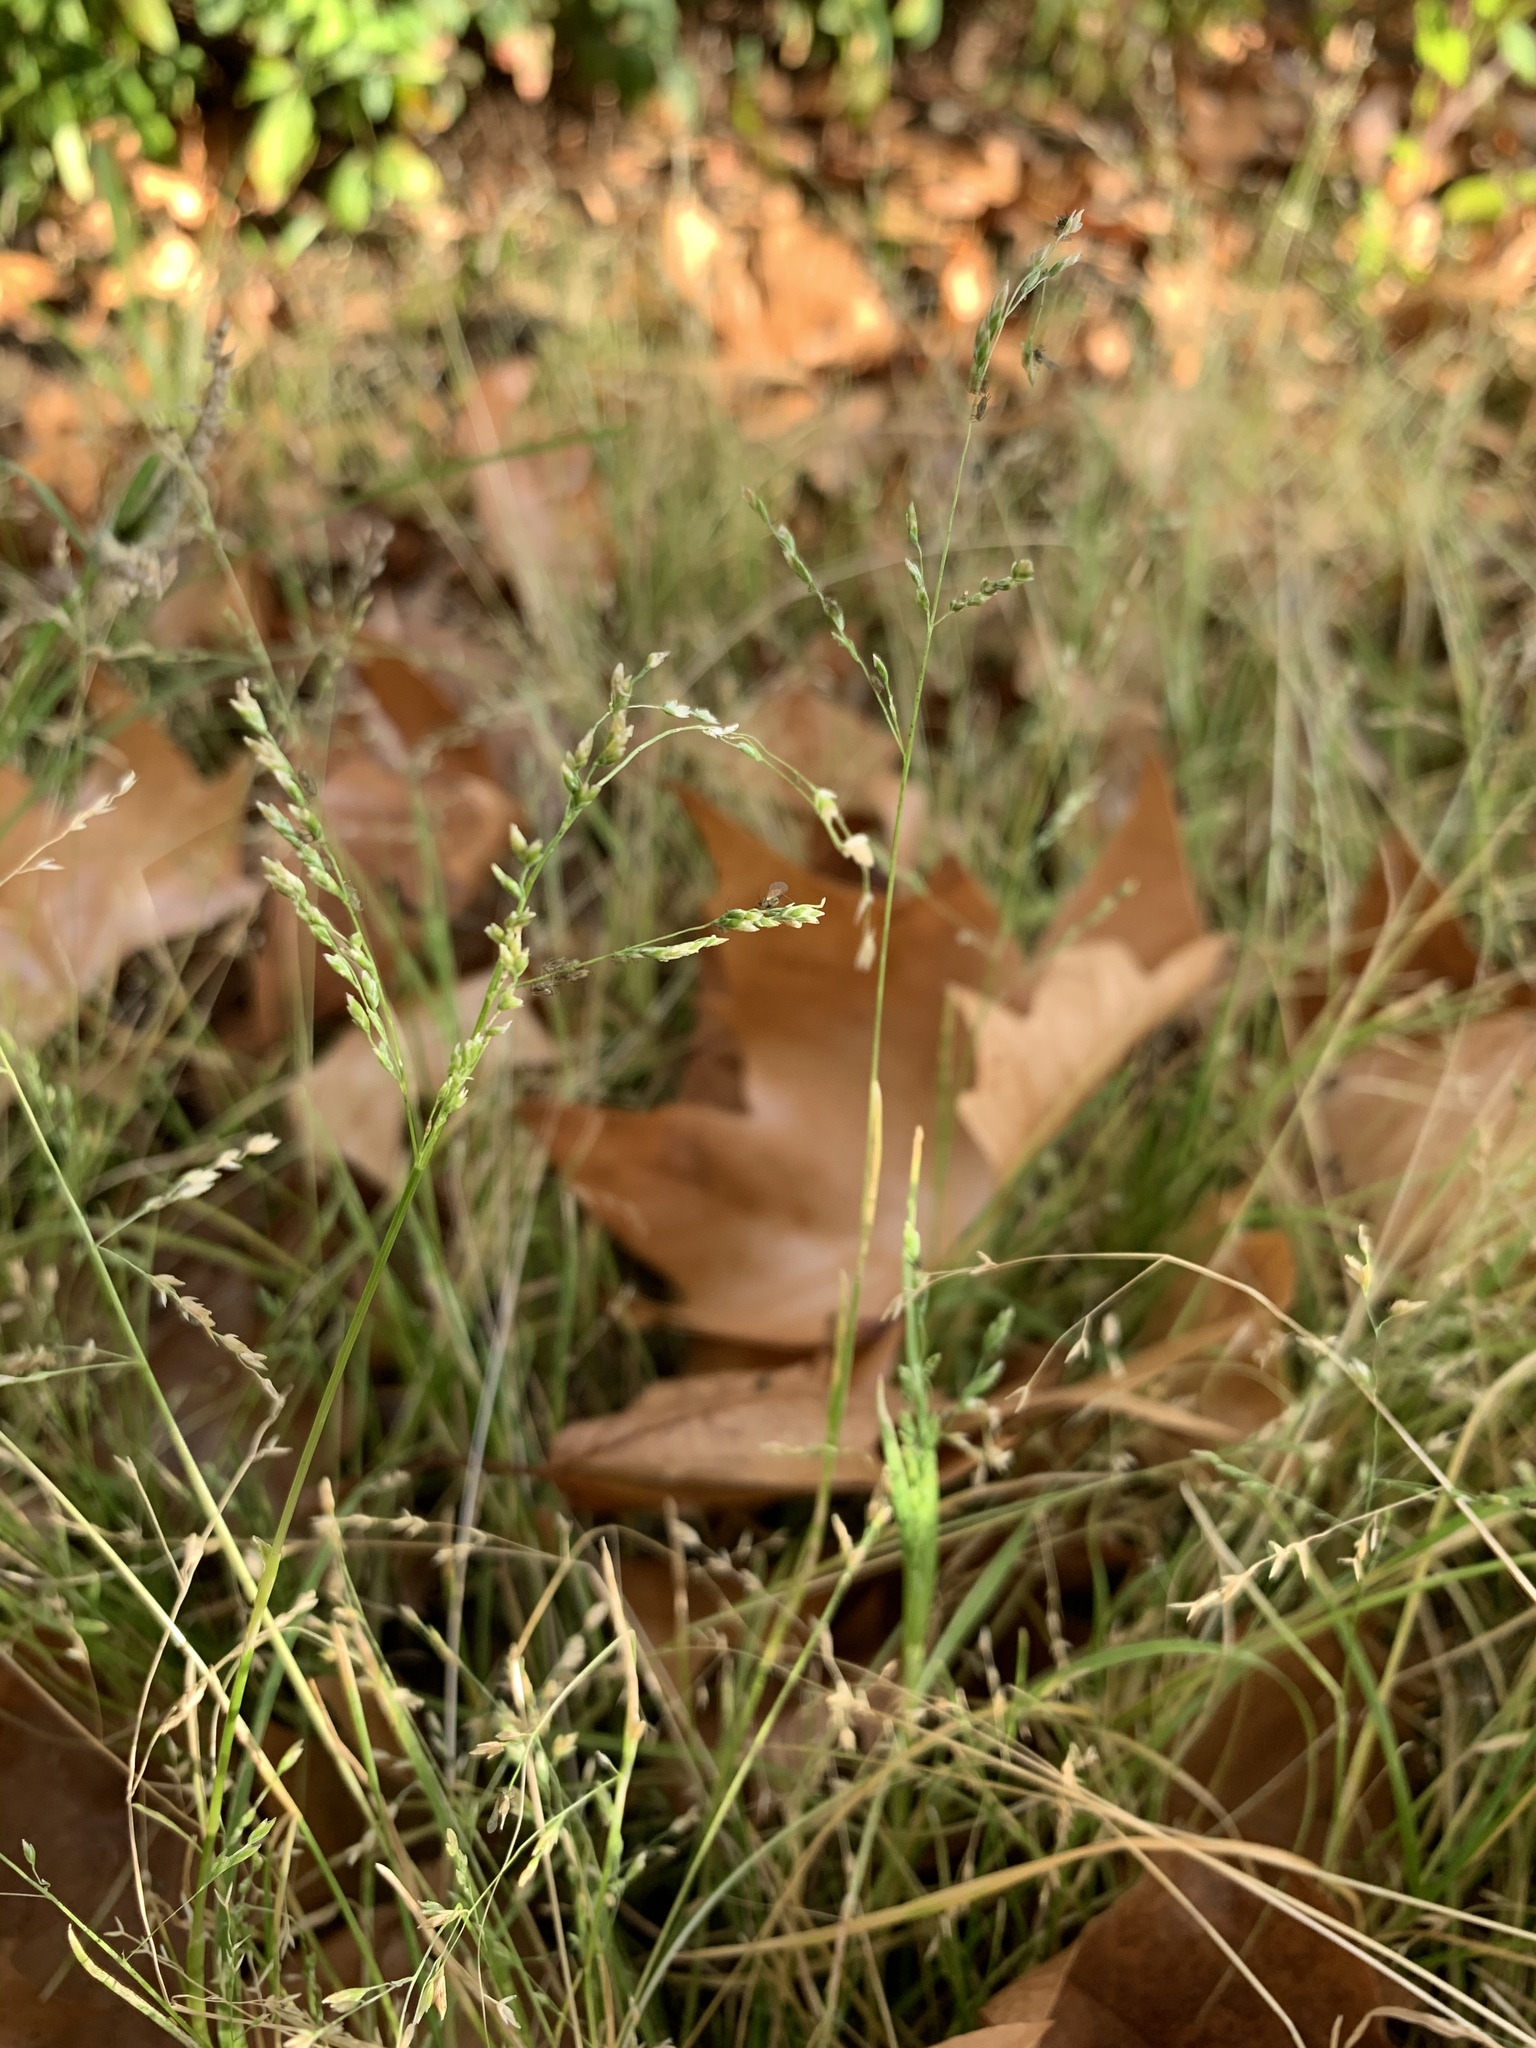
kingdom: Plantae
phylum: Tracheophyta
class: Liliopsida
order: Poales
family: Poaceae
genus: Poa
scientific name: Poa annua
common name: Annual bluegrass
